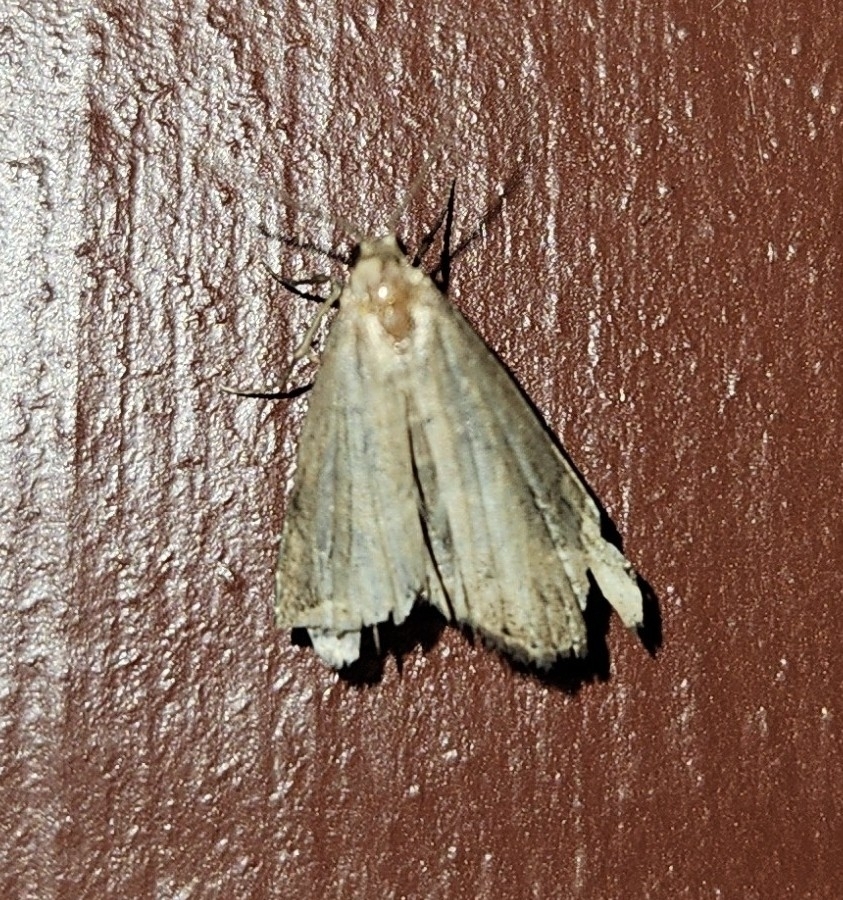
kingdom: Animalia
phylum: Arthropoda
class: Insecta
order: Lepidoptera
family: Erebidae
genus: Schrankia
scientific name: Schrankia costaestrigalis
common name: Pinion-streaked snout
